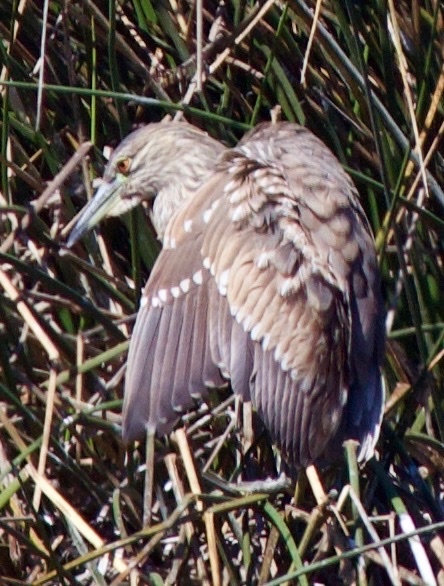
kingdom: Animalia
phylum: Chordata
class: Aves
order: Pelecaniformes
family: Ardeidae
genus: Nycticorax
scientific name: Nycticorax nycticorax
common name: Black-crowned night heron
